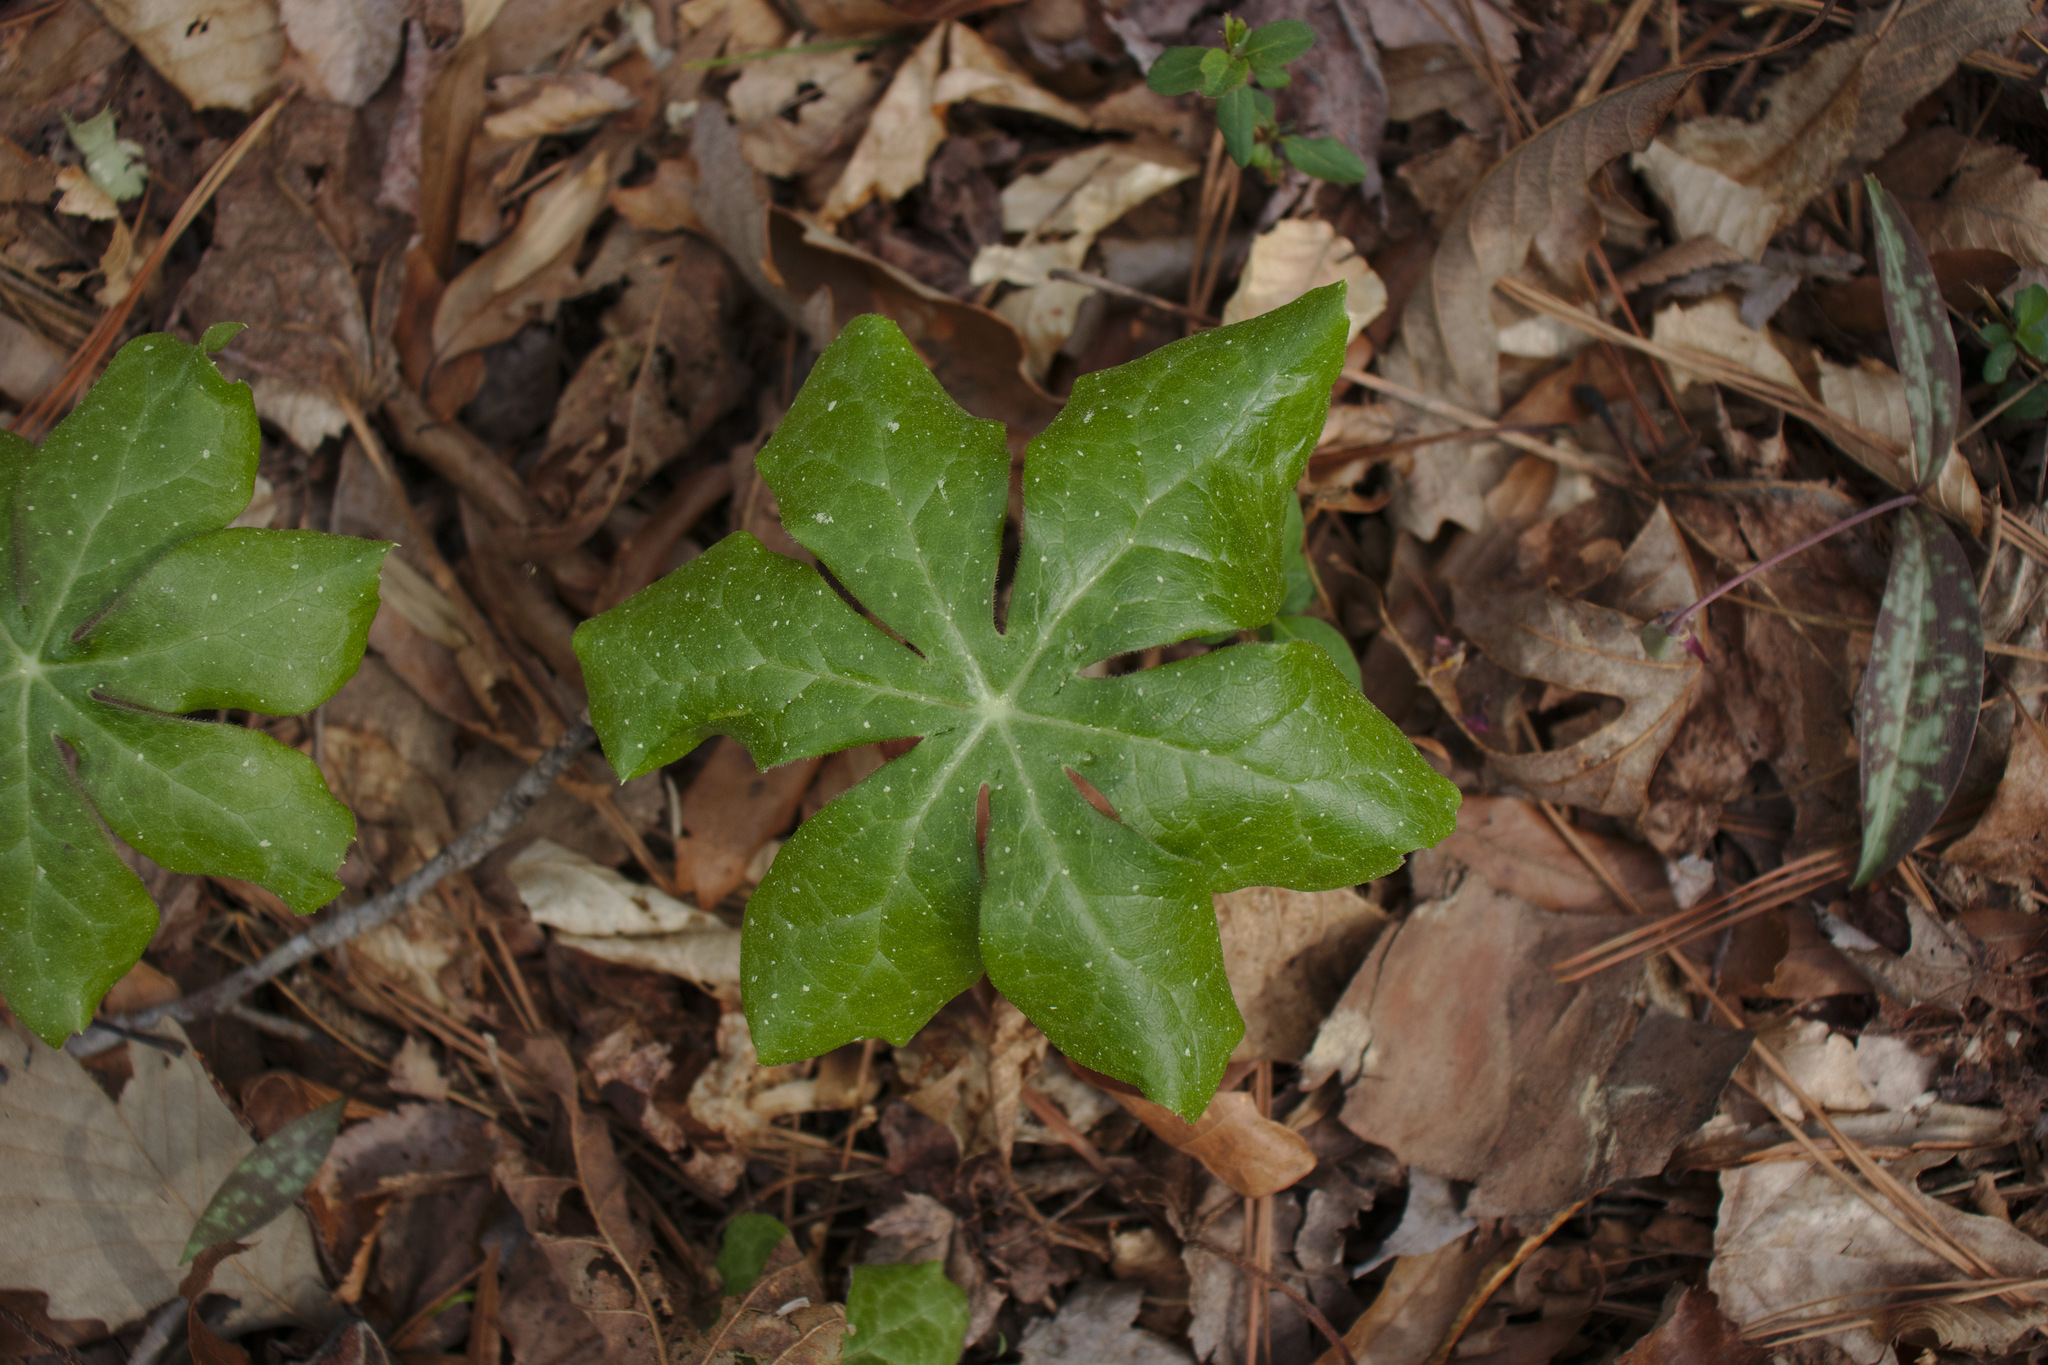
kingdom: Plantae
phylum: Tracheophyta
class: Magnoliopsida
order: Ranunculales
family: Berberidaceae
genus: Podophyllum
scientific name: Podophyllum peltatum
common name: Wild mandrake
